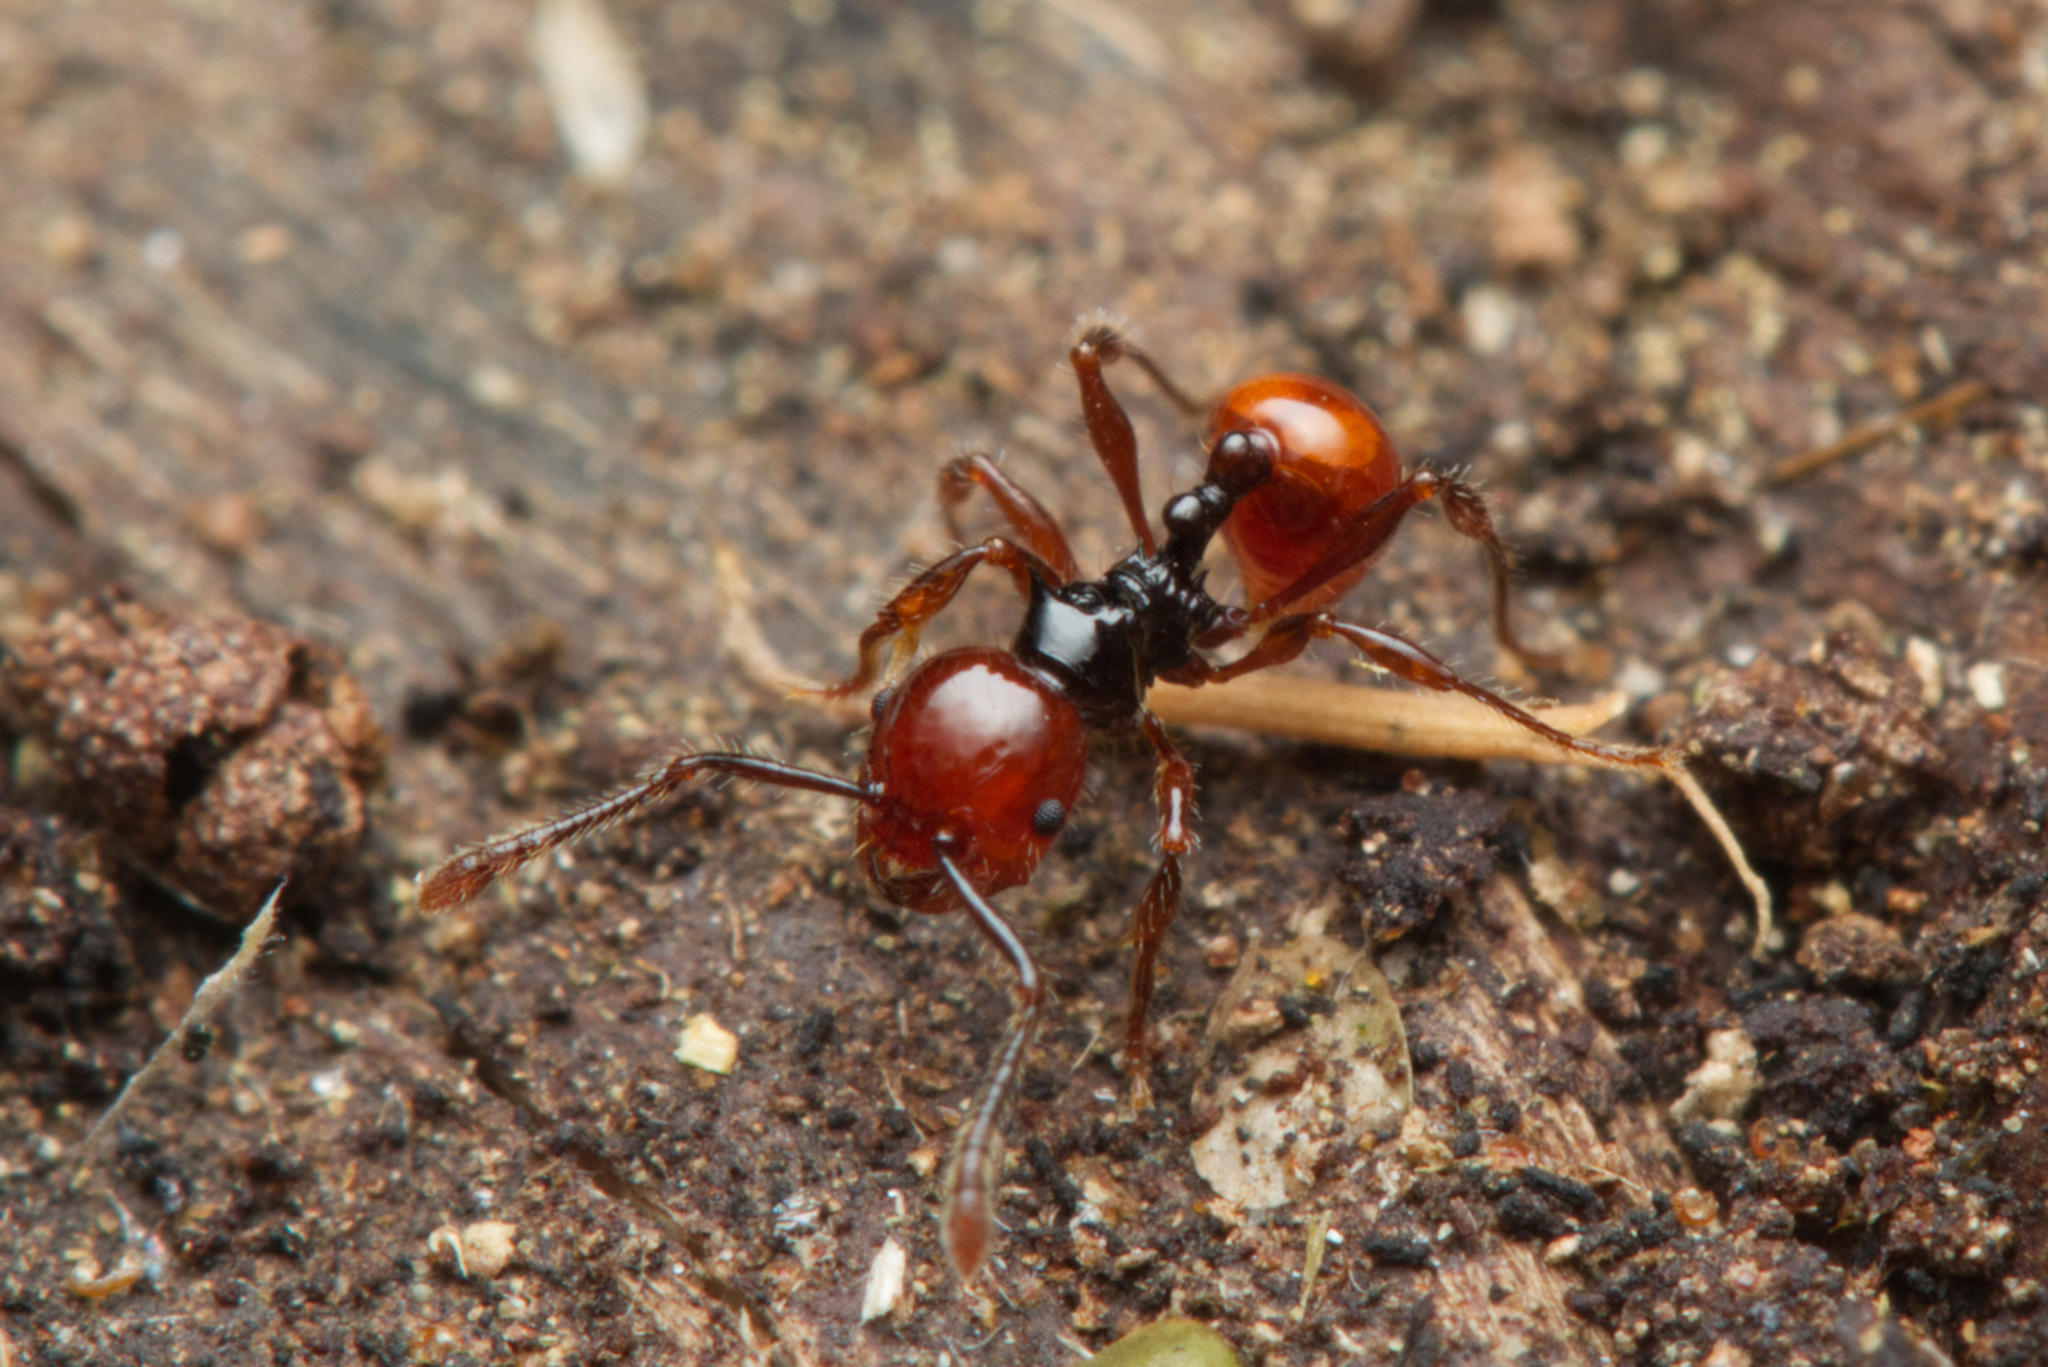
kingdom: Animalia
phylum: Arthropoda
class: Insecta
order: Hymenoptera
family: Formicidae
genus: Pristomyrmex
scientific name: Pristomyrmex quadridentatus
